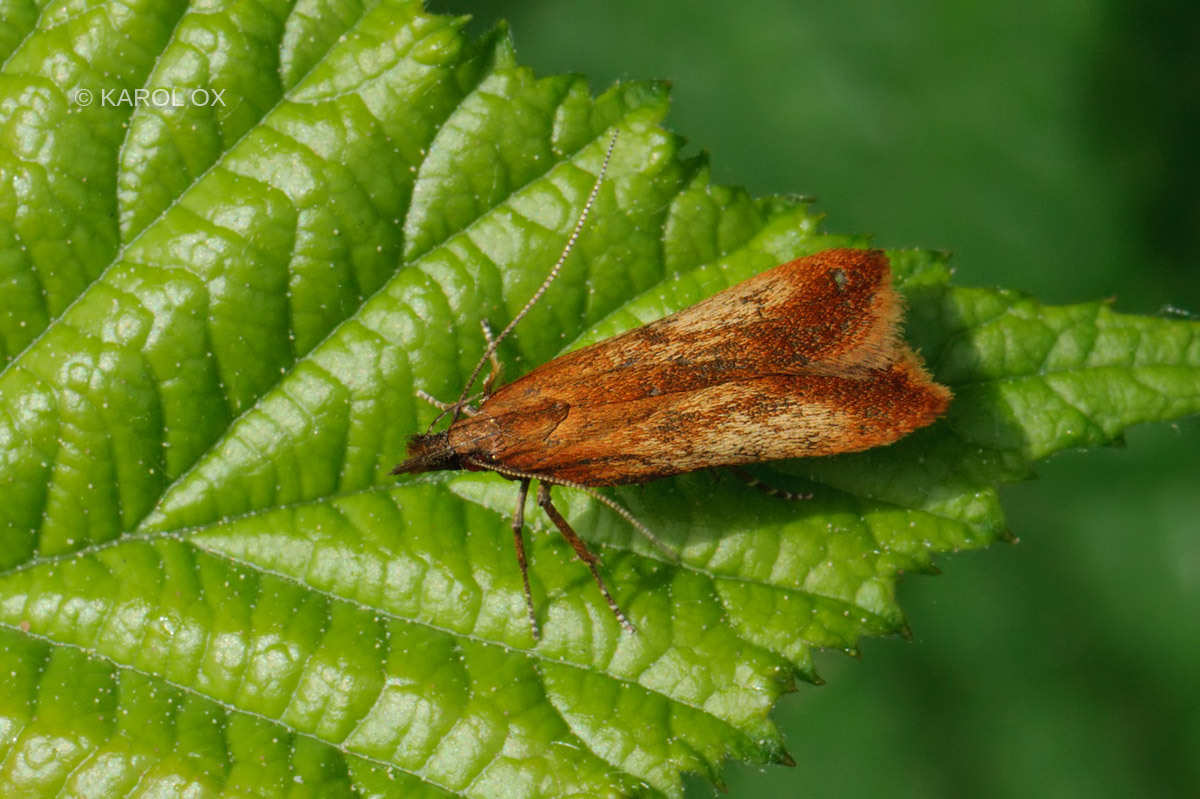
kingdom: Animalia
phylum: Arthropoda
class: Insecta
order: Lepidoptera
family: Gelechiidae
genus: Dichomeris
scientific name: Dichomeris ustalella
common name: Worcester crest
